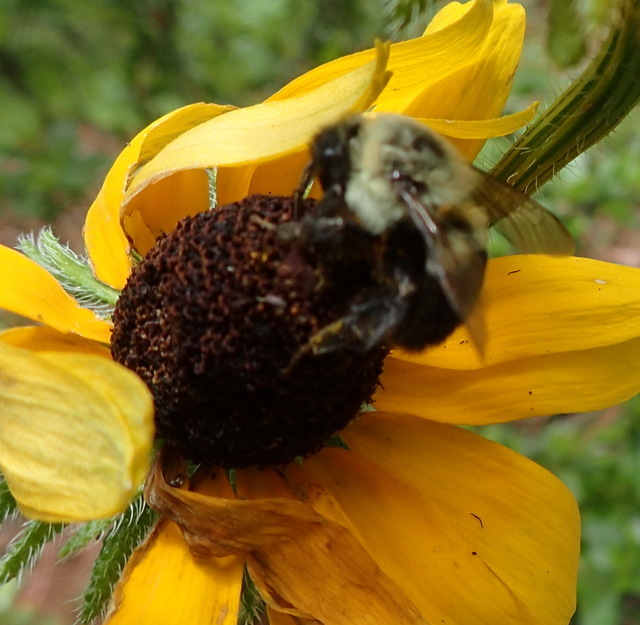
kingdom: Animalia
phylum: Arthropoda
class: Insecta
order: Hymenoptera
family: Apidae
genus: Bombus
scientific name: Bombus impatiens
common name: Common eastern bumble bee
